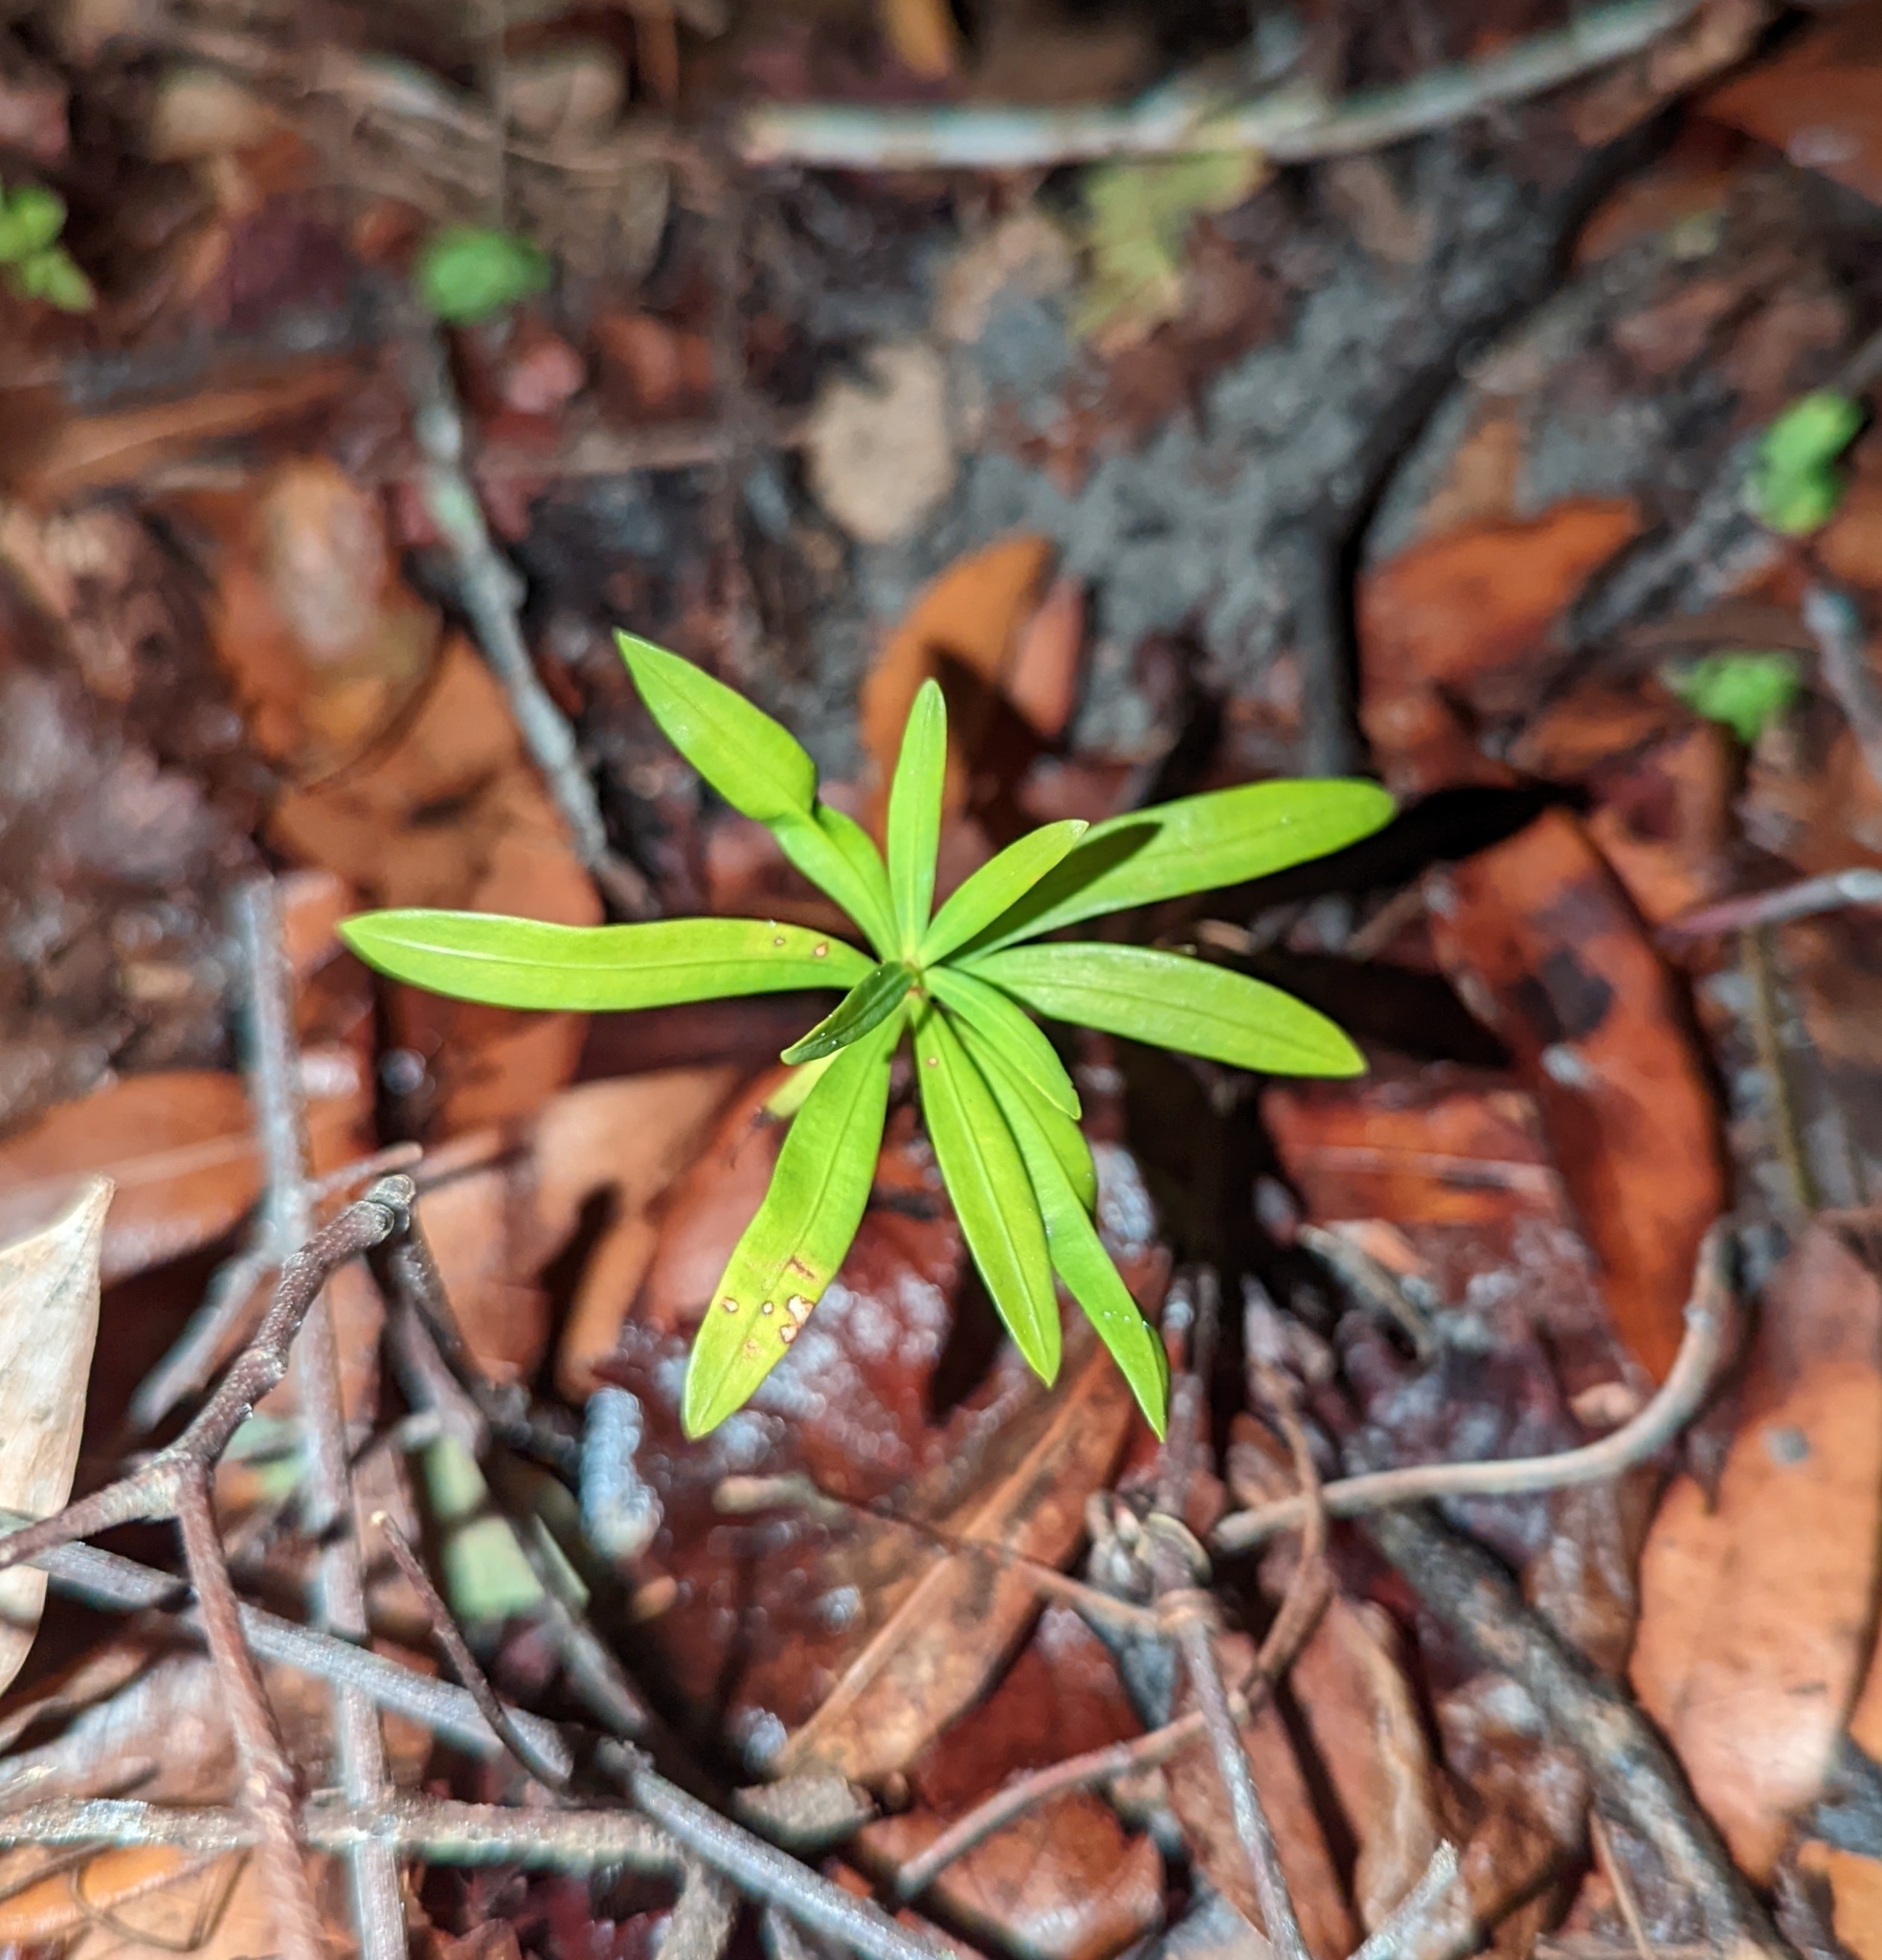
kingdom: Plantae
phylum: Tracheophyta
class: Pinopsida
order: Pinales
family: Podocarpaceae
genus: Podocarpus
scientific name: Podocarpus macrophyllus
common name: Japanese yew
